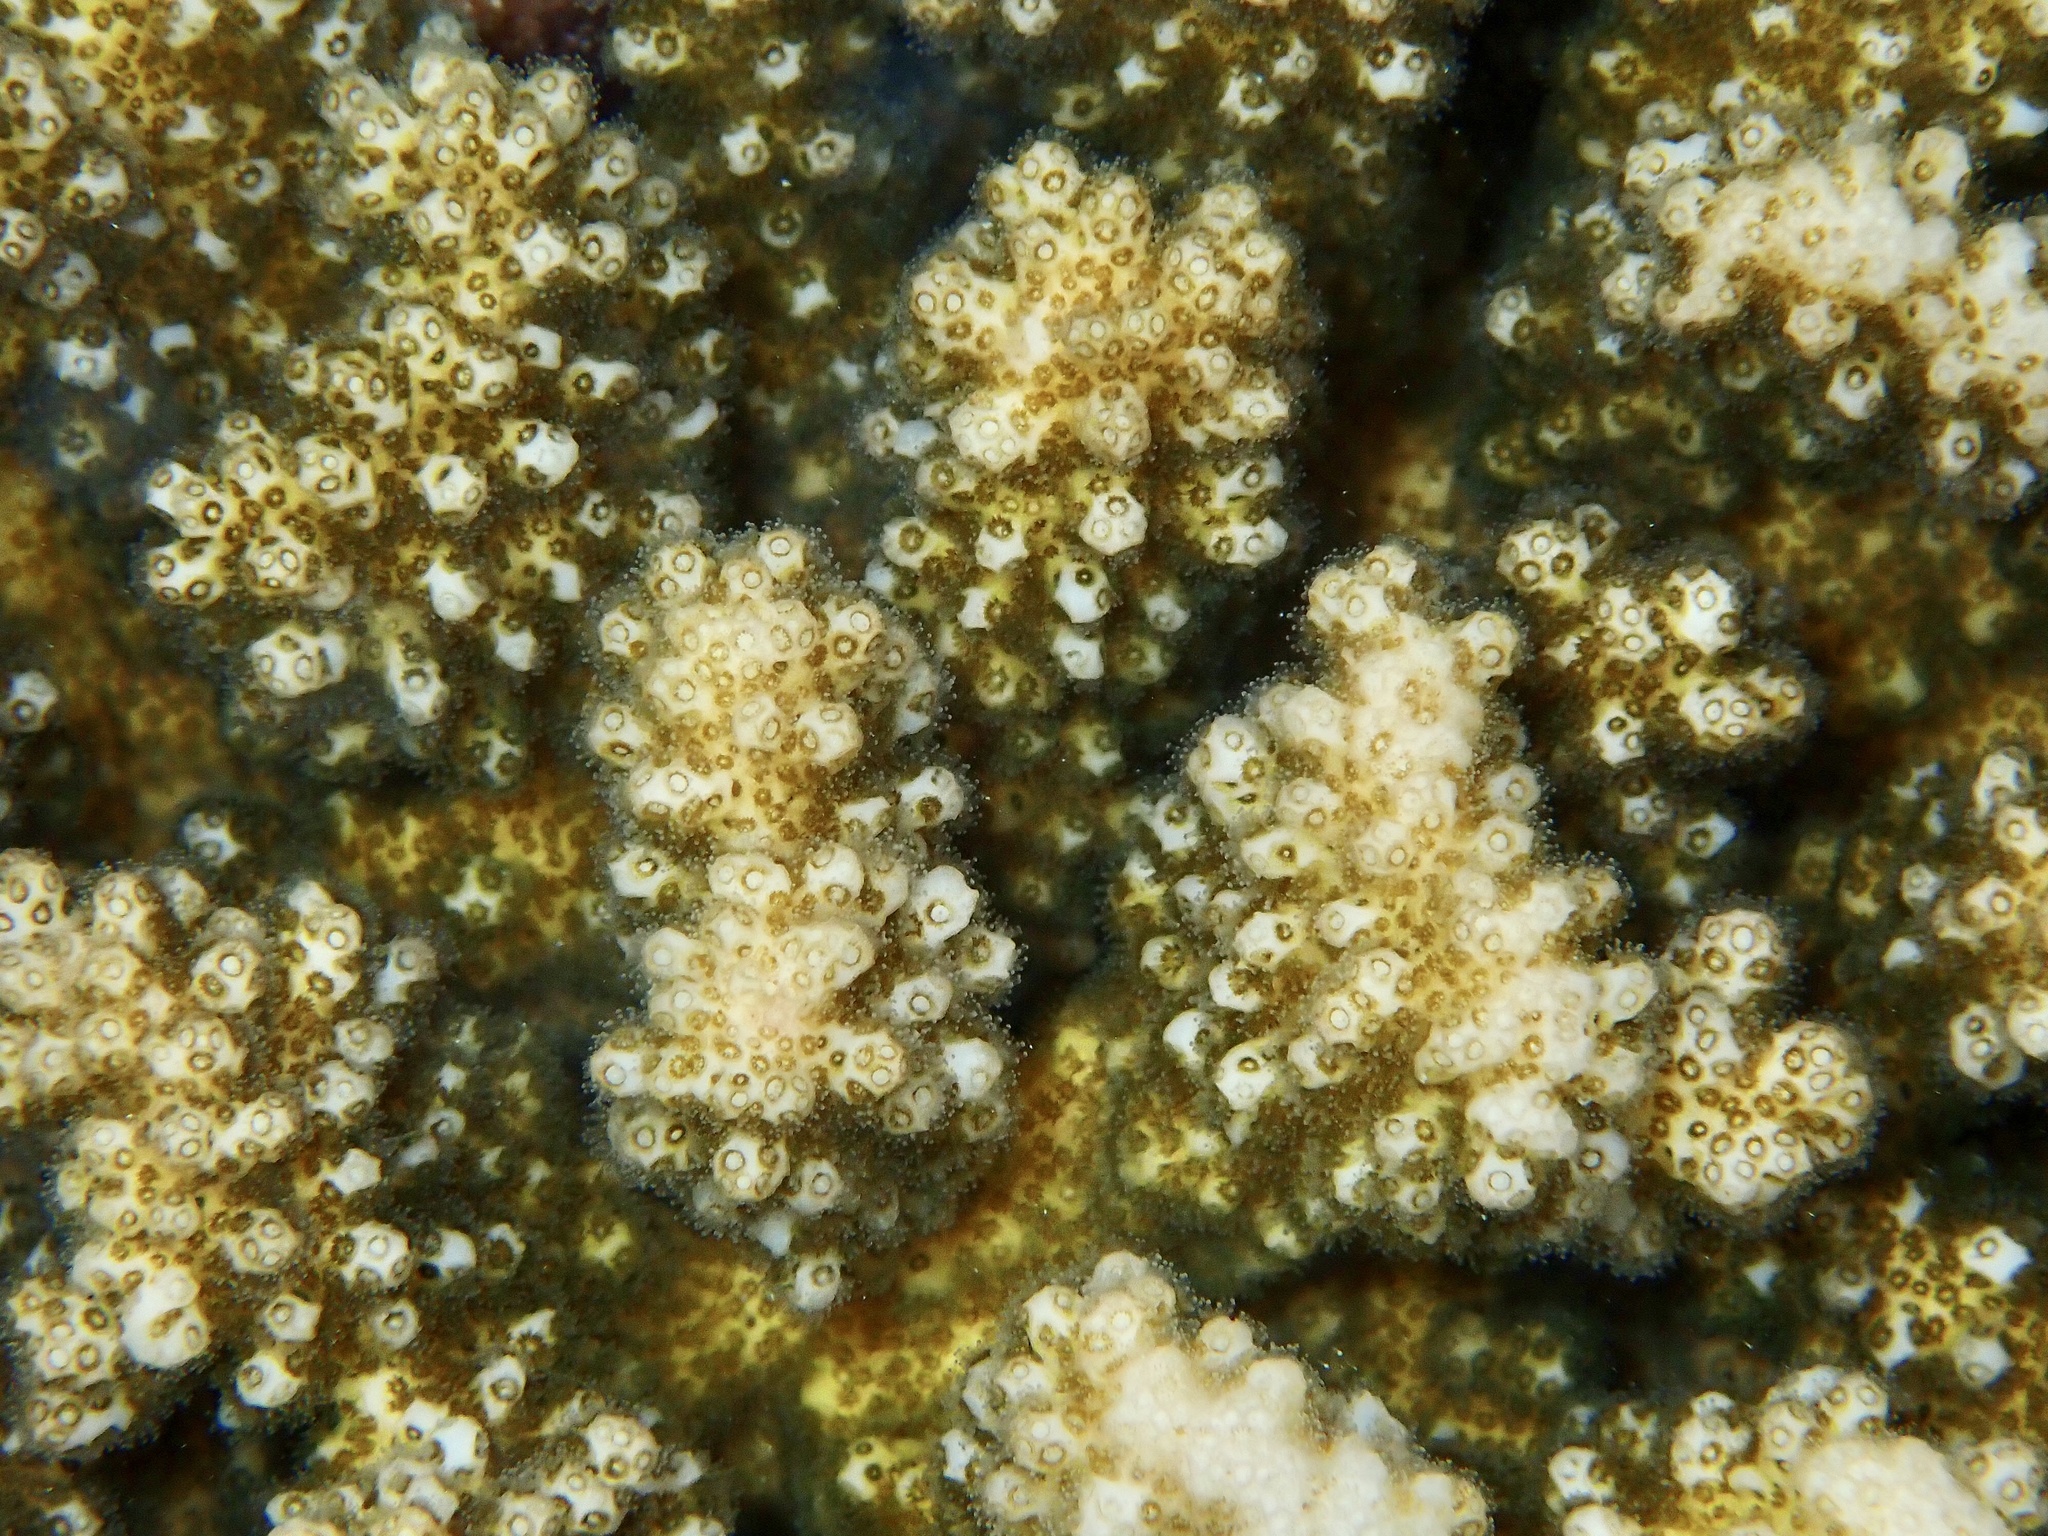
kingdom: Animalia
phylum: Cnidaria
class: Anthozoa
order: Scleractinia
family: Pocilloporidae
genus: Pocillopora
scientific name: Pocillopora
